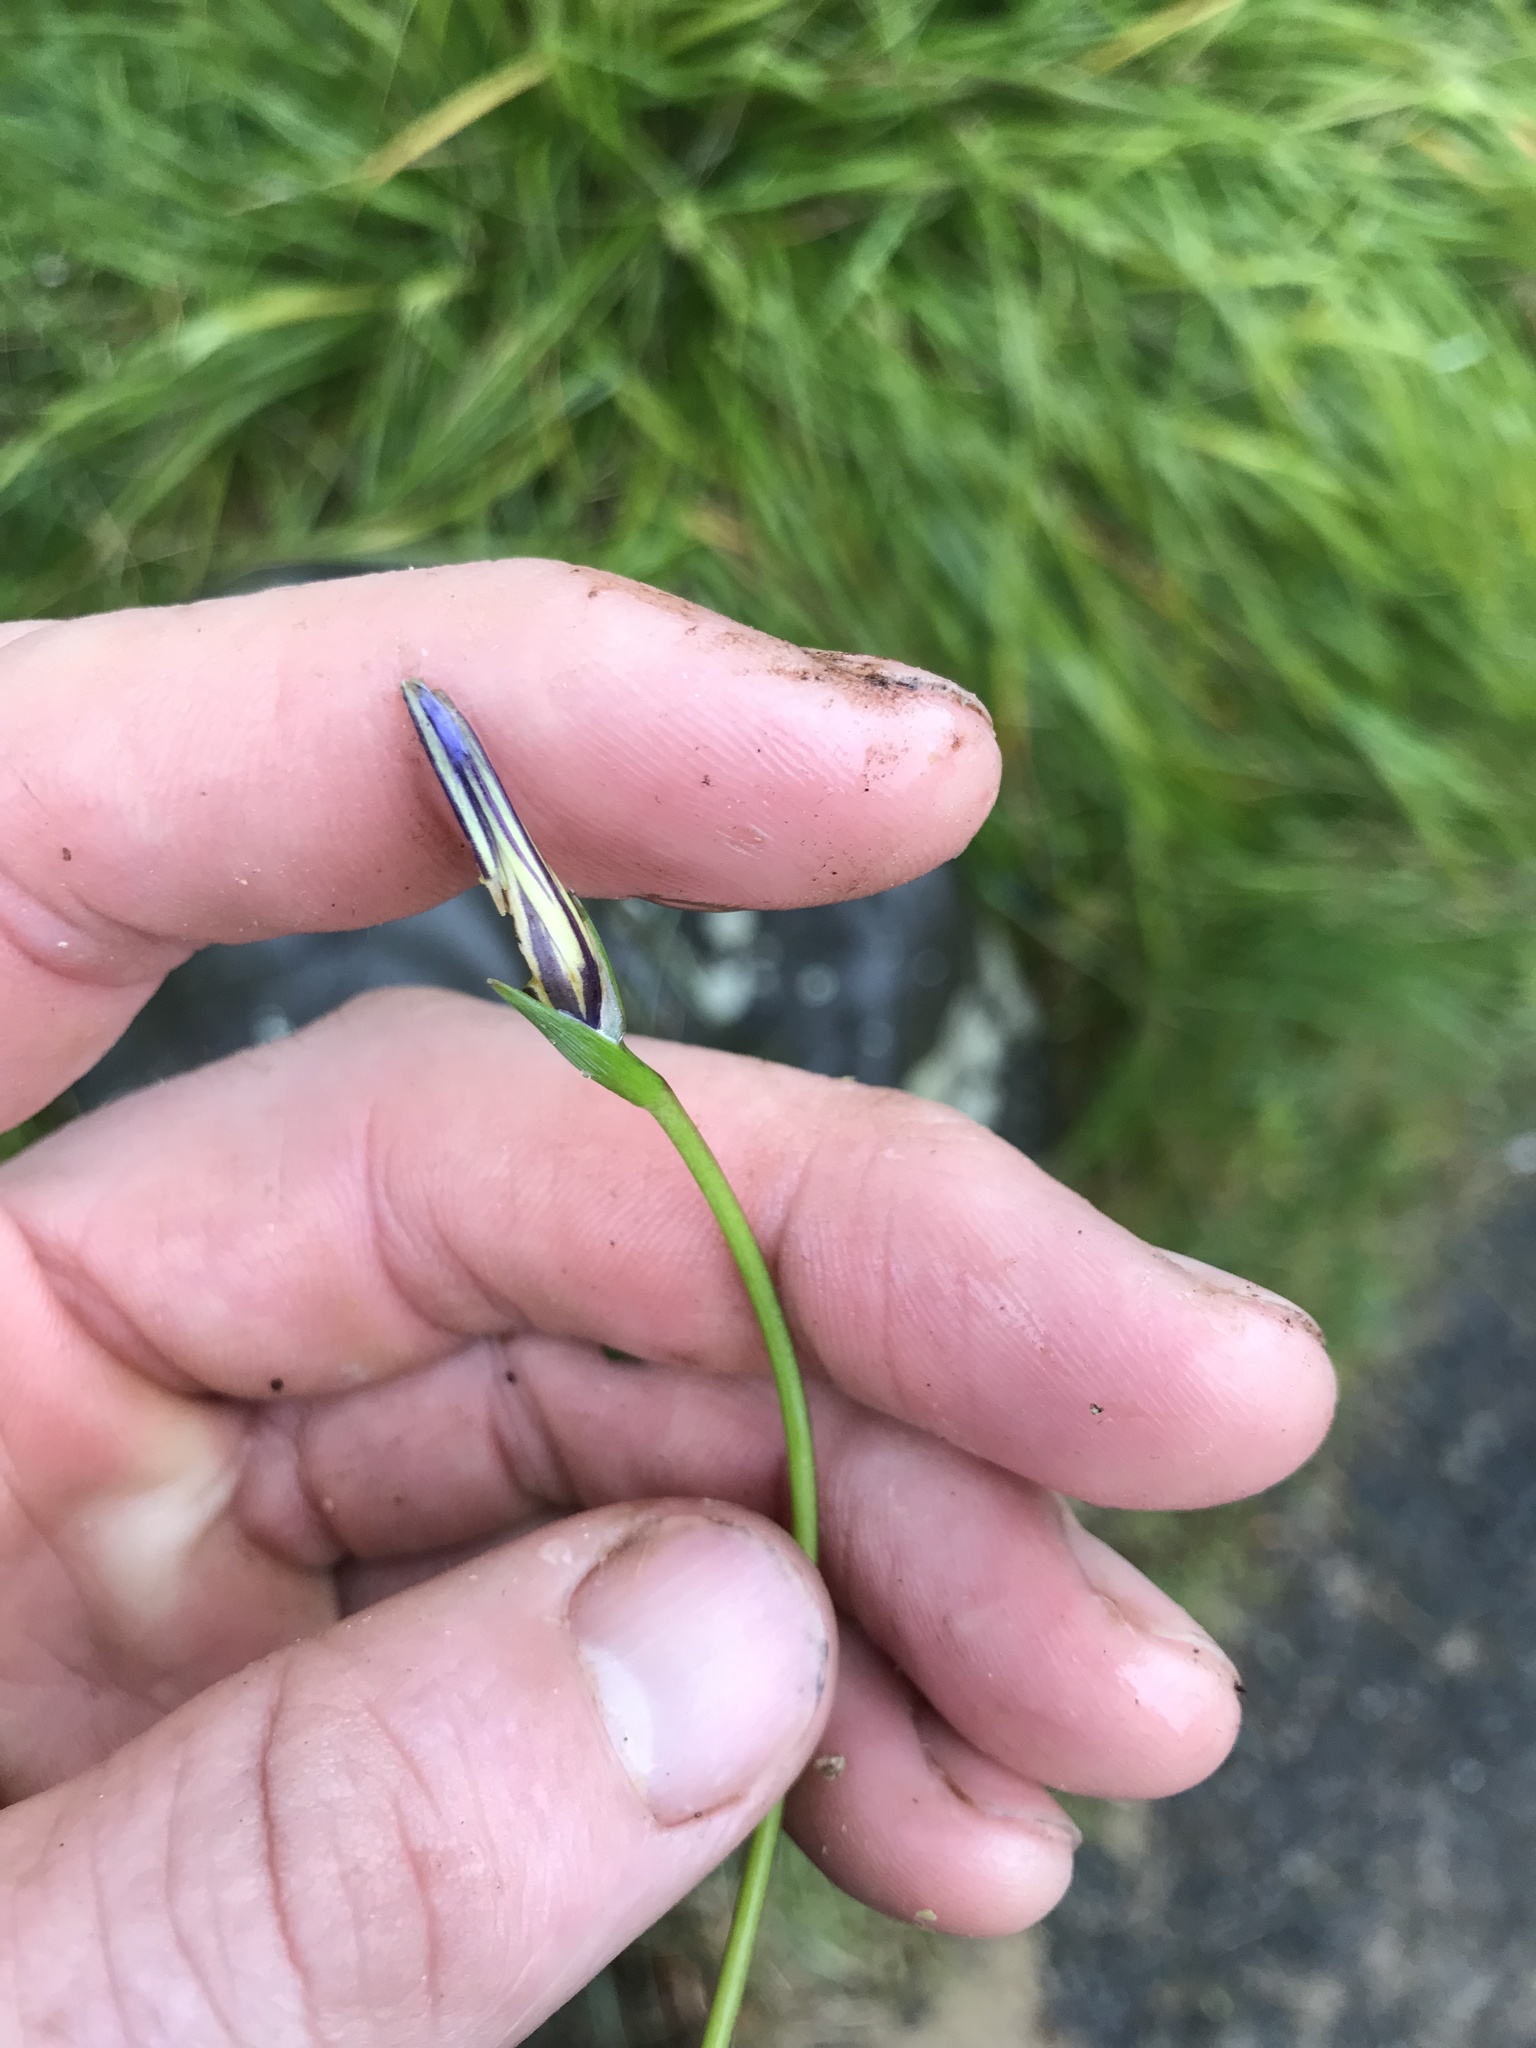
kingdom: Plantae
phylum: Tracheophyta
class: Liliopsida
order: Asparagales
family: Iridaceae
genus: Romulea
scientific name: Romulea rosea
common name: Oniongrass
